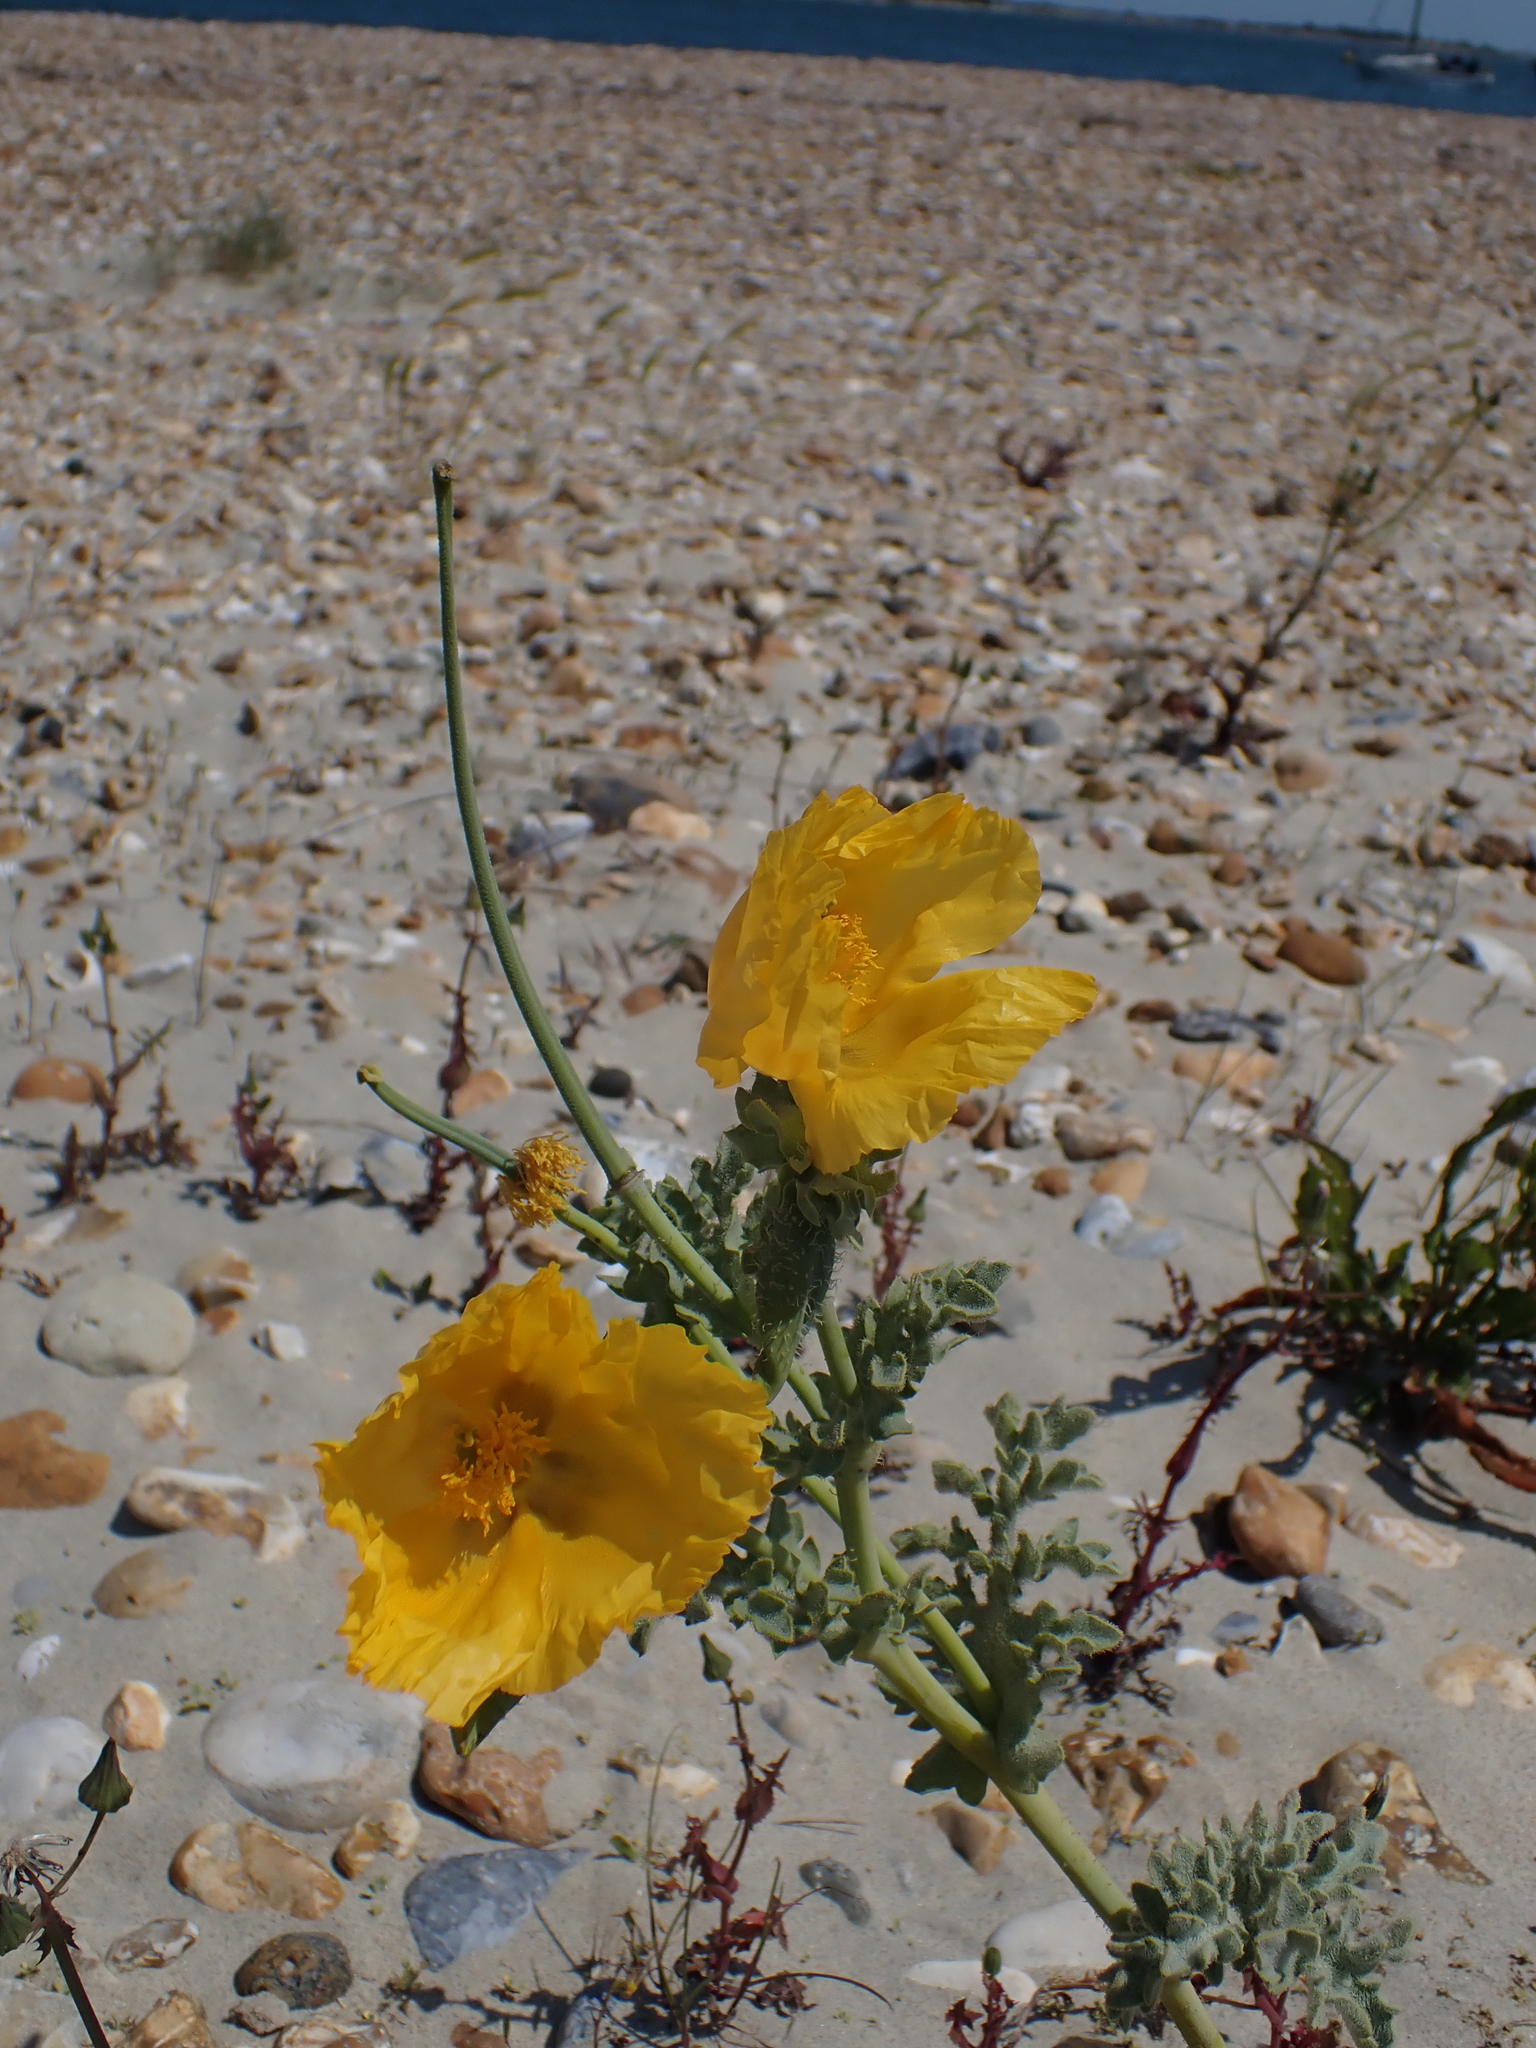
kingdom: Plantae
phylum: Tracheophyta
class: Magnoliopsida
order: Ranunculales
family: Papaveraceae
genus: Glaucium
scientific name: Glaucium flavum
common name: Yellow horned-poppy
